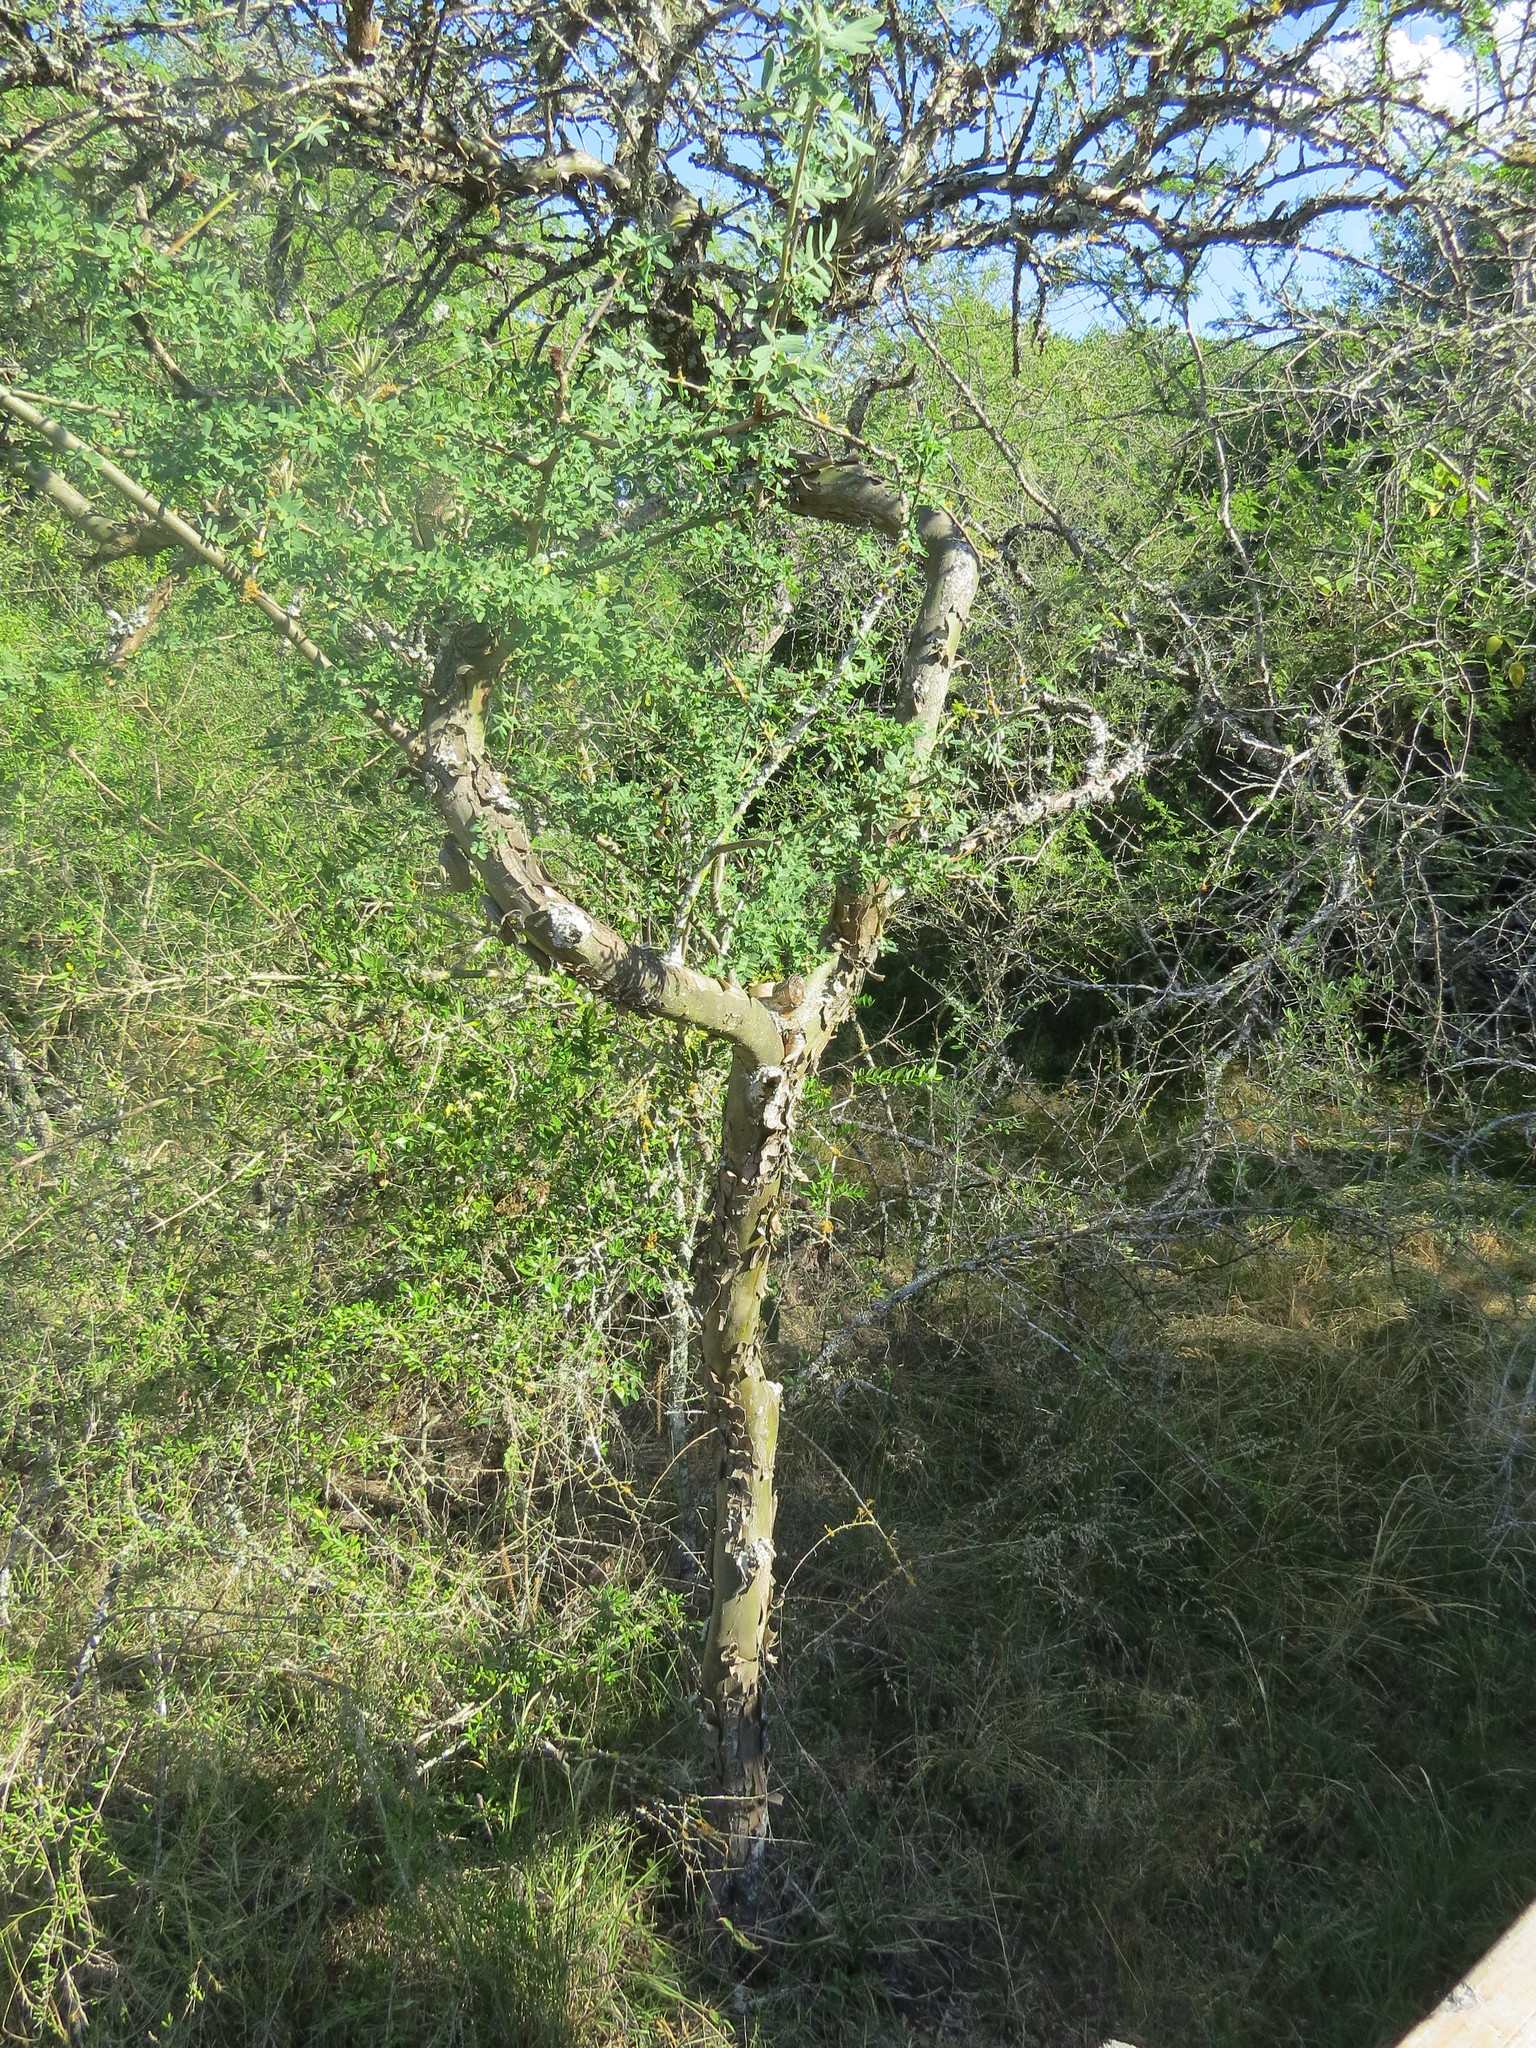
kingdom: Plantae
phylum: Tracheophyta
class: Magnoliopsida
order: Fabales
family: Fabaceae
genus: Geoffroea
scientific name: Geoffroea decorticans
